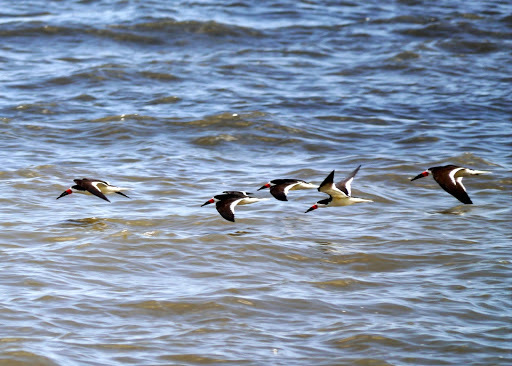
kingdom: Animalia
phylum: Chordata
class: Aves
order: Charadriiformes
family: Laridae
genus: Rynchops
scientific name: Rynchops niger
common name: Black skimmer
